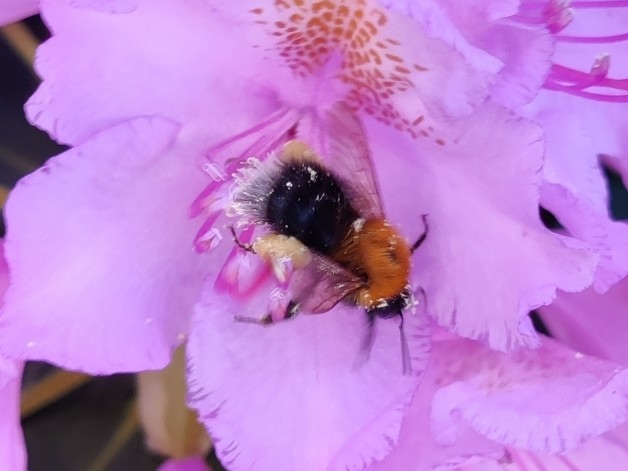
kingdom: Animalia
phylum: Arthropoda
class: Insecta
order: Hymenoptera
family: Apidae
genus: Bombus
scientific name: Bombus hypnorum
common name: New garden bumblebee
